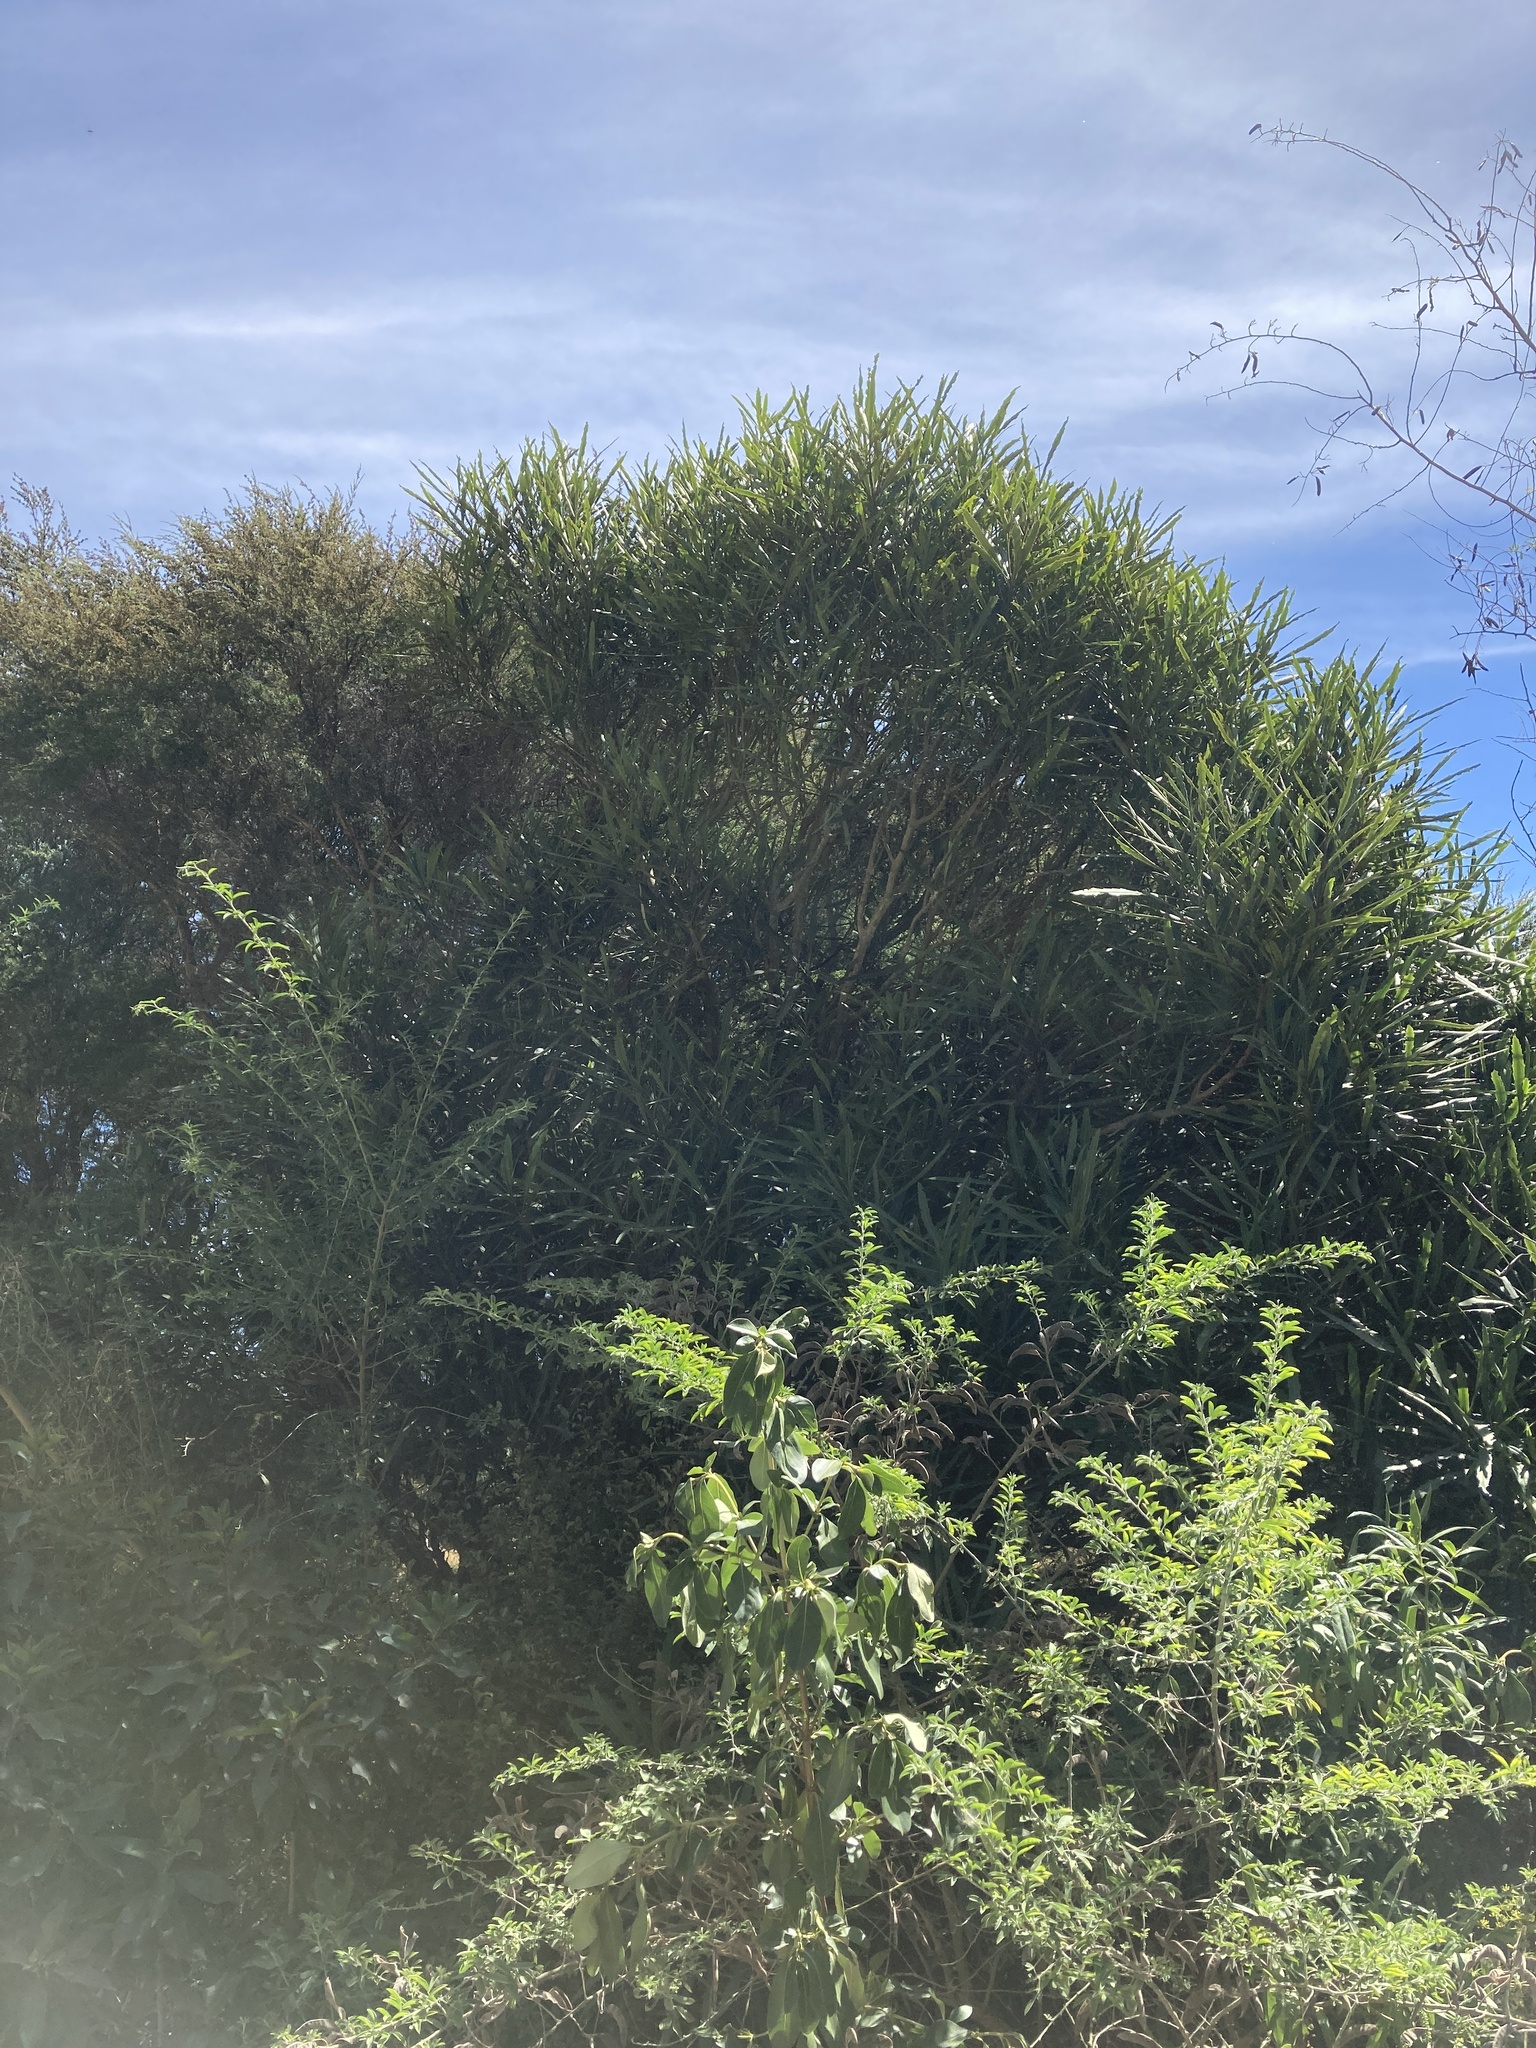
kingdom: Plantae
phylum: Tracheophyta
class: Magnoliopsida
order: Apiales
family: Araliaceae
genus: Pseudopanax
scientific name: Pseudopanax crassifolius
